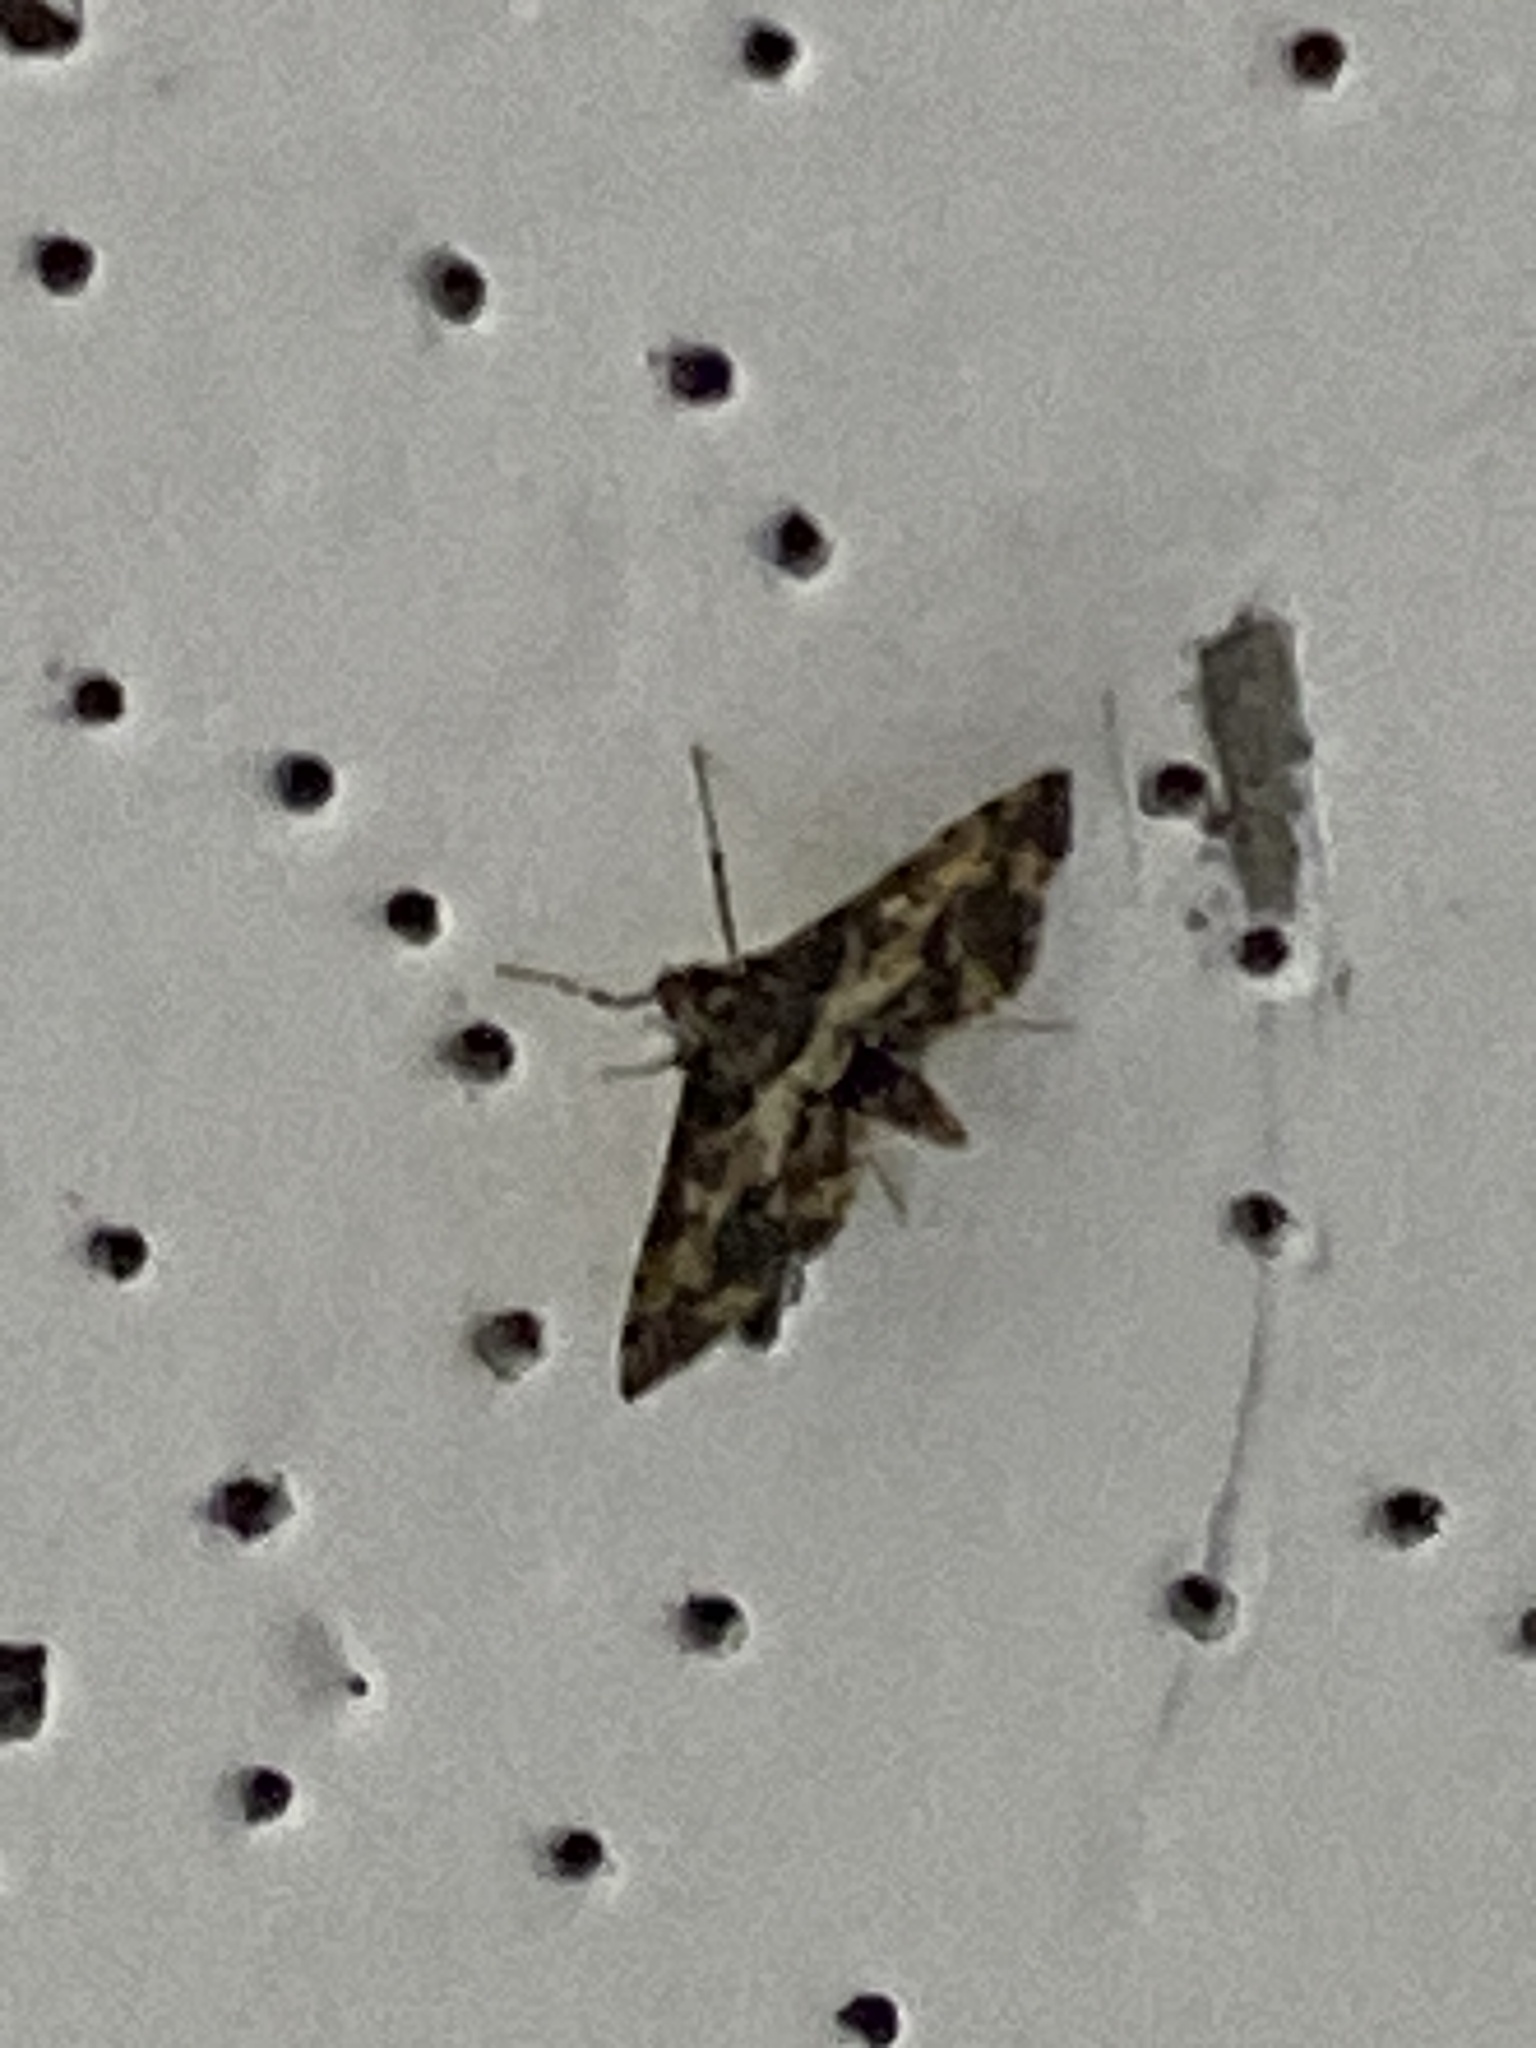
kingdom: Animalia
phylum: Arthropoda
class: Insecta
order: Lepidoptera
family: Crambidae
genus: Nacoleia
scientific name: Nacoleia amphicedalis
